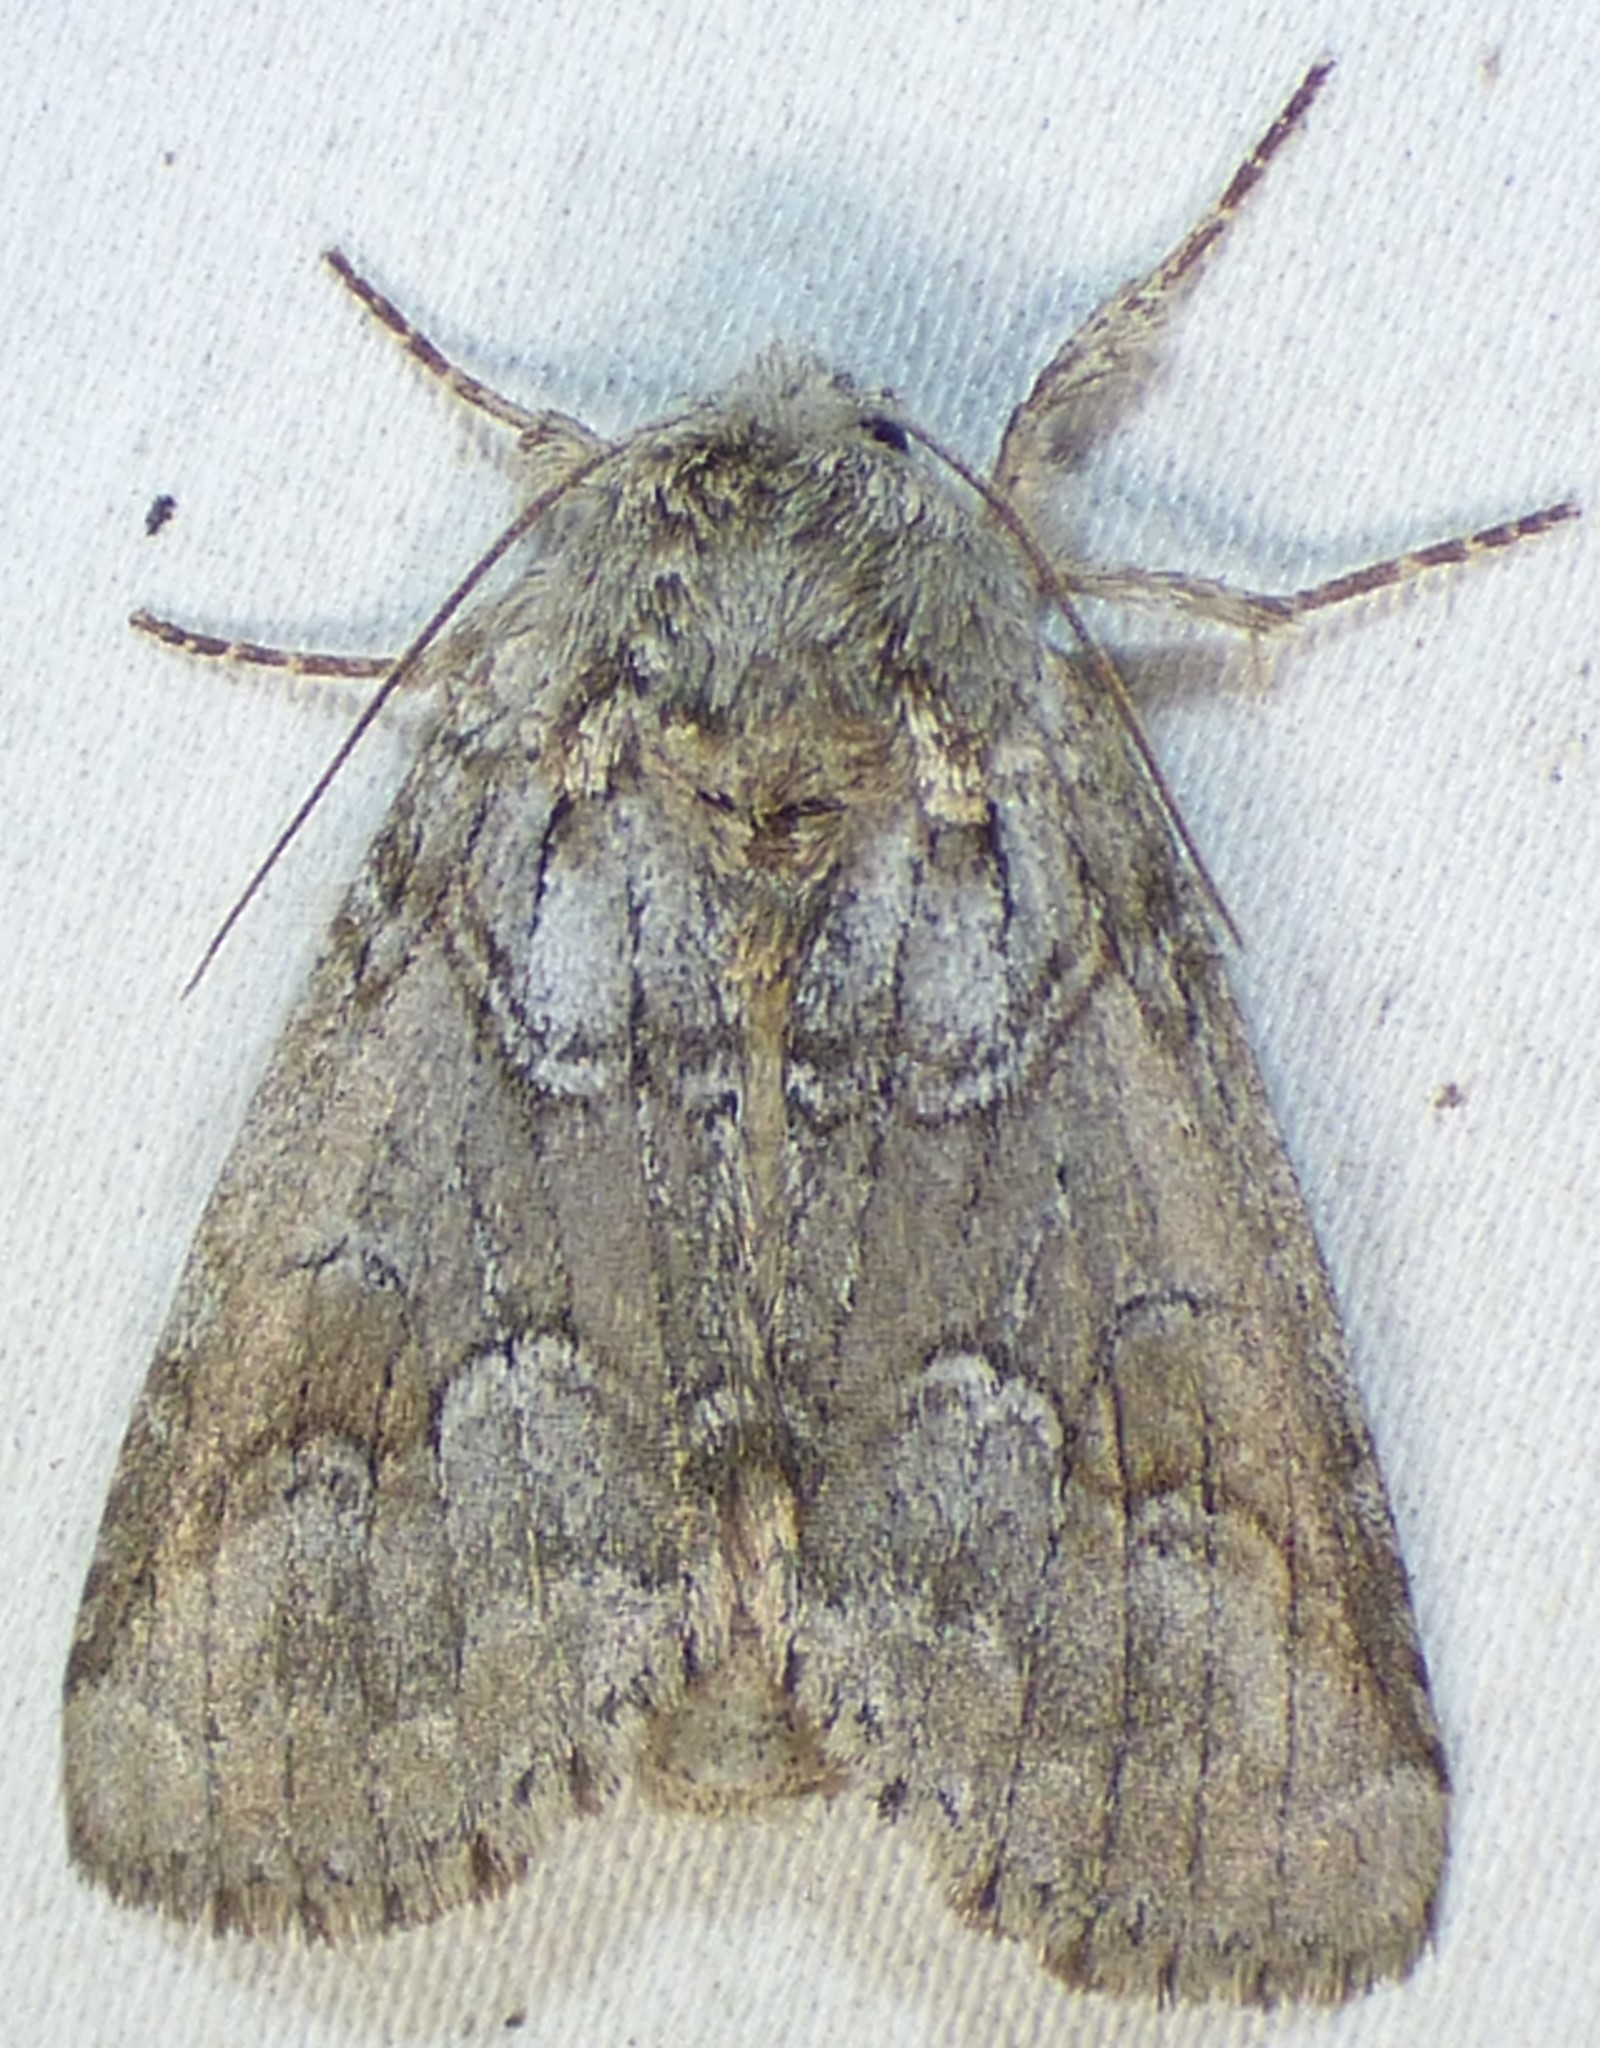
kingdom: Animalia
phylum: Arthropoda
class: Insecta
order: Lepidoptera
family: Notodontidae
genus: Lochmaeus
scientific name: Lochmaeus bilineata
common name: Double-lined prominent
